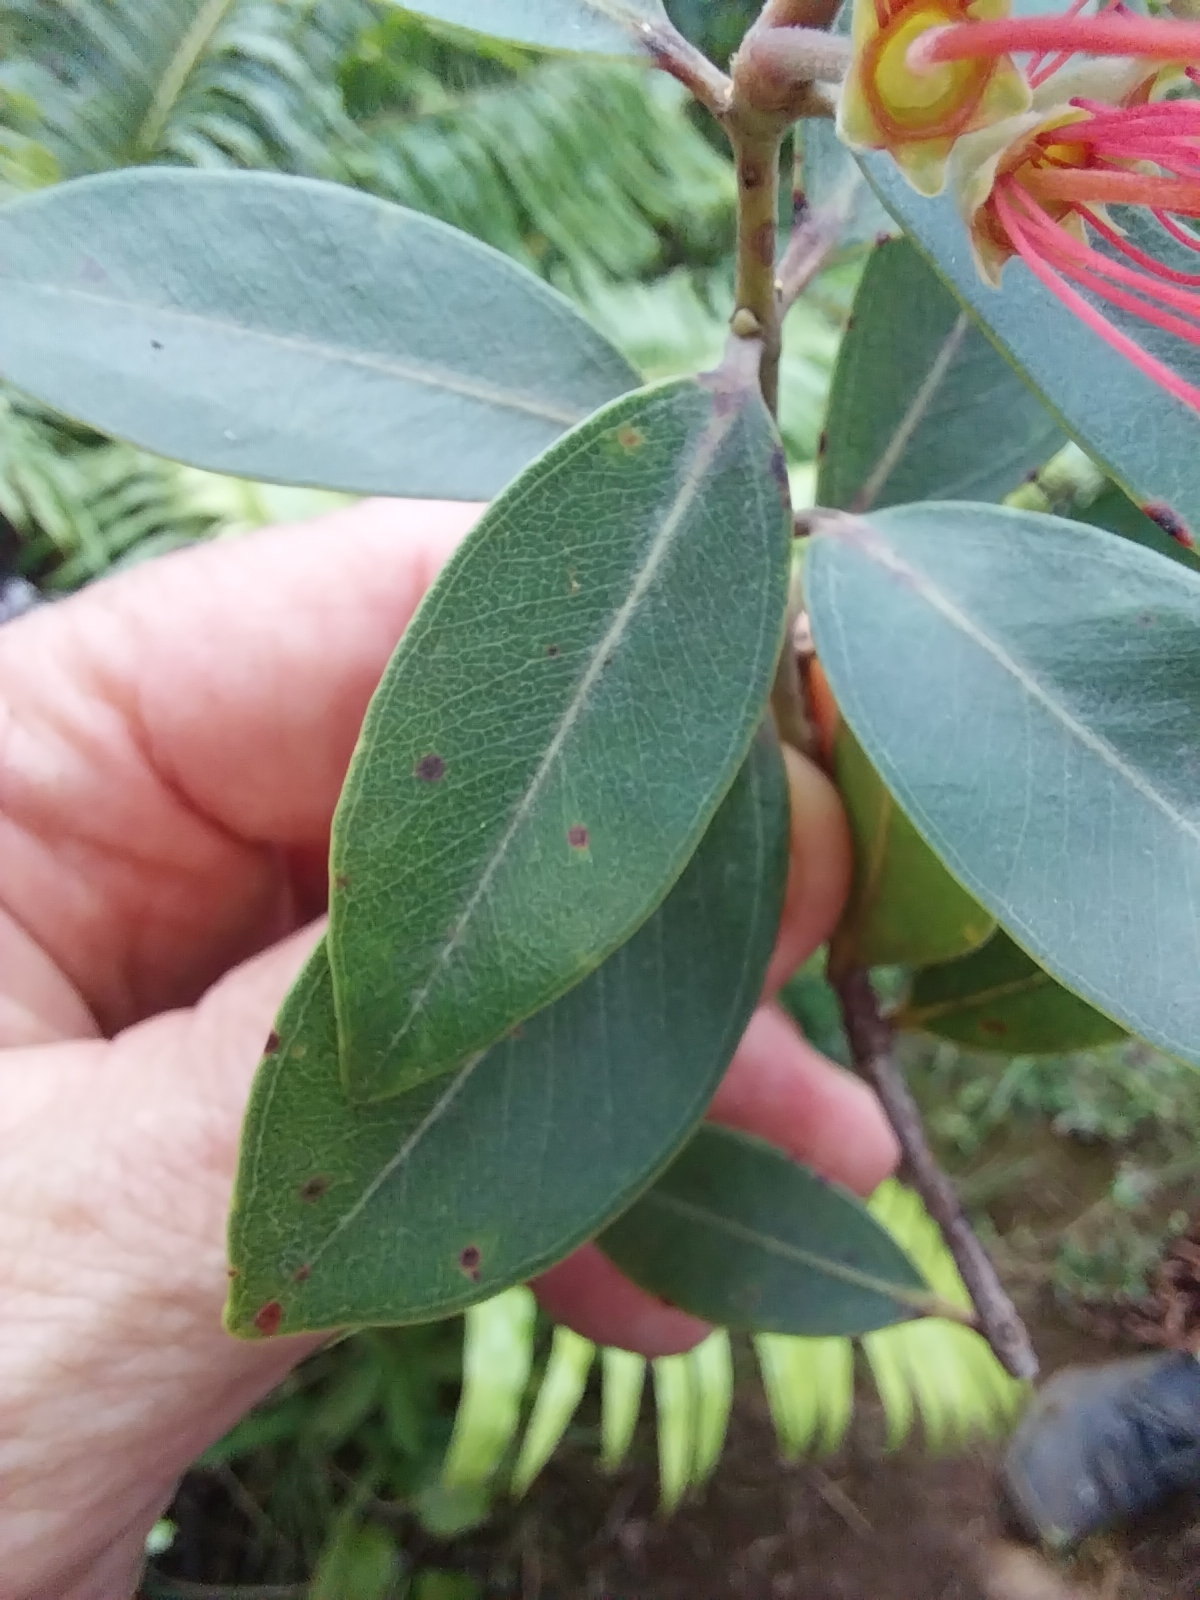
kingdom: Plantae
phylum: Tracheophyta
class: Magnoliopsida
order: Myrtales
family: Myrtaceae
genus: Metrosideros
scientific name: Metrosideros collina
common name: Vunga
